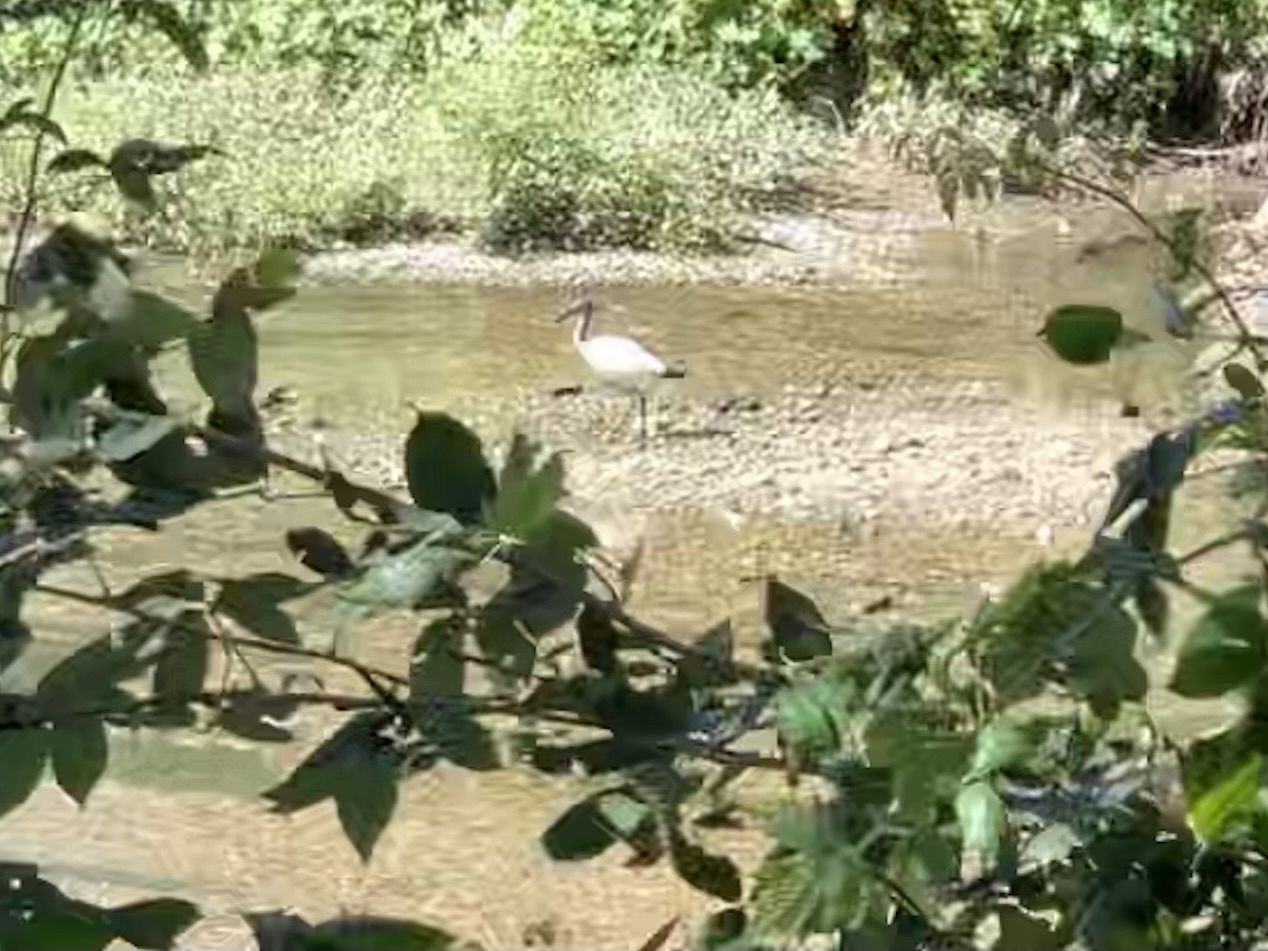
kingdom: Animalia
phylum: Chordata
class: Aves
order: Pelecaniformes
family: Threskiornithidae
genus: Threskiornis
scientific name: Threskiornis aethiopicus
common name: Sacred ibis
